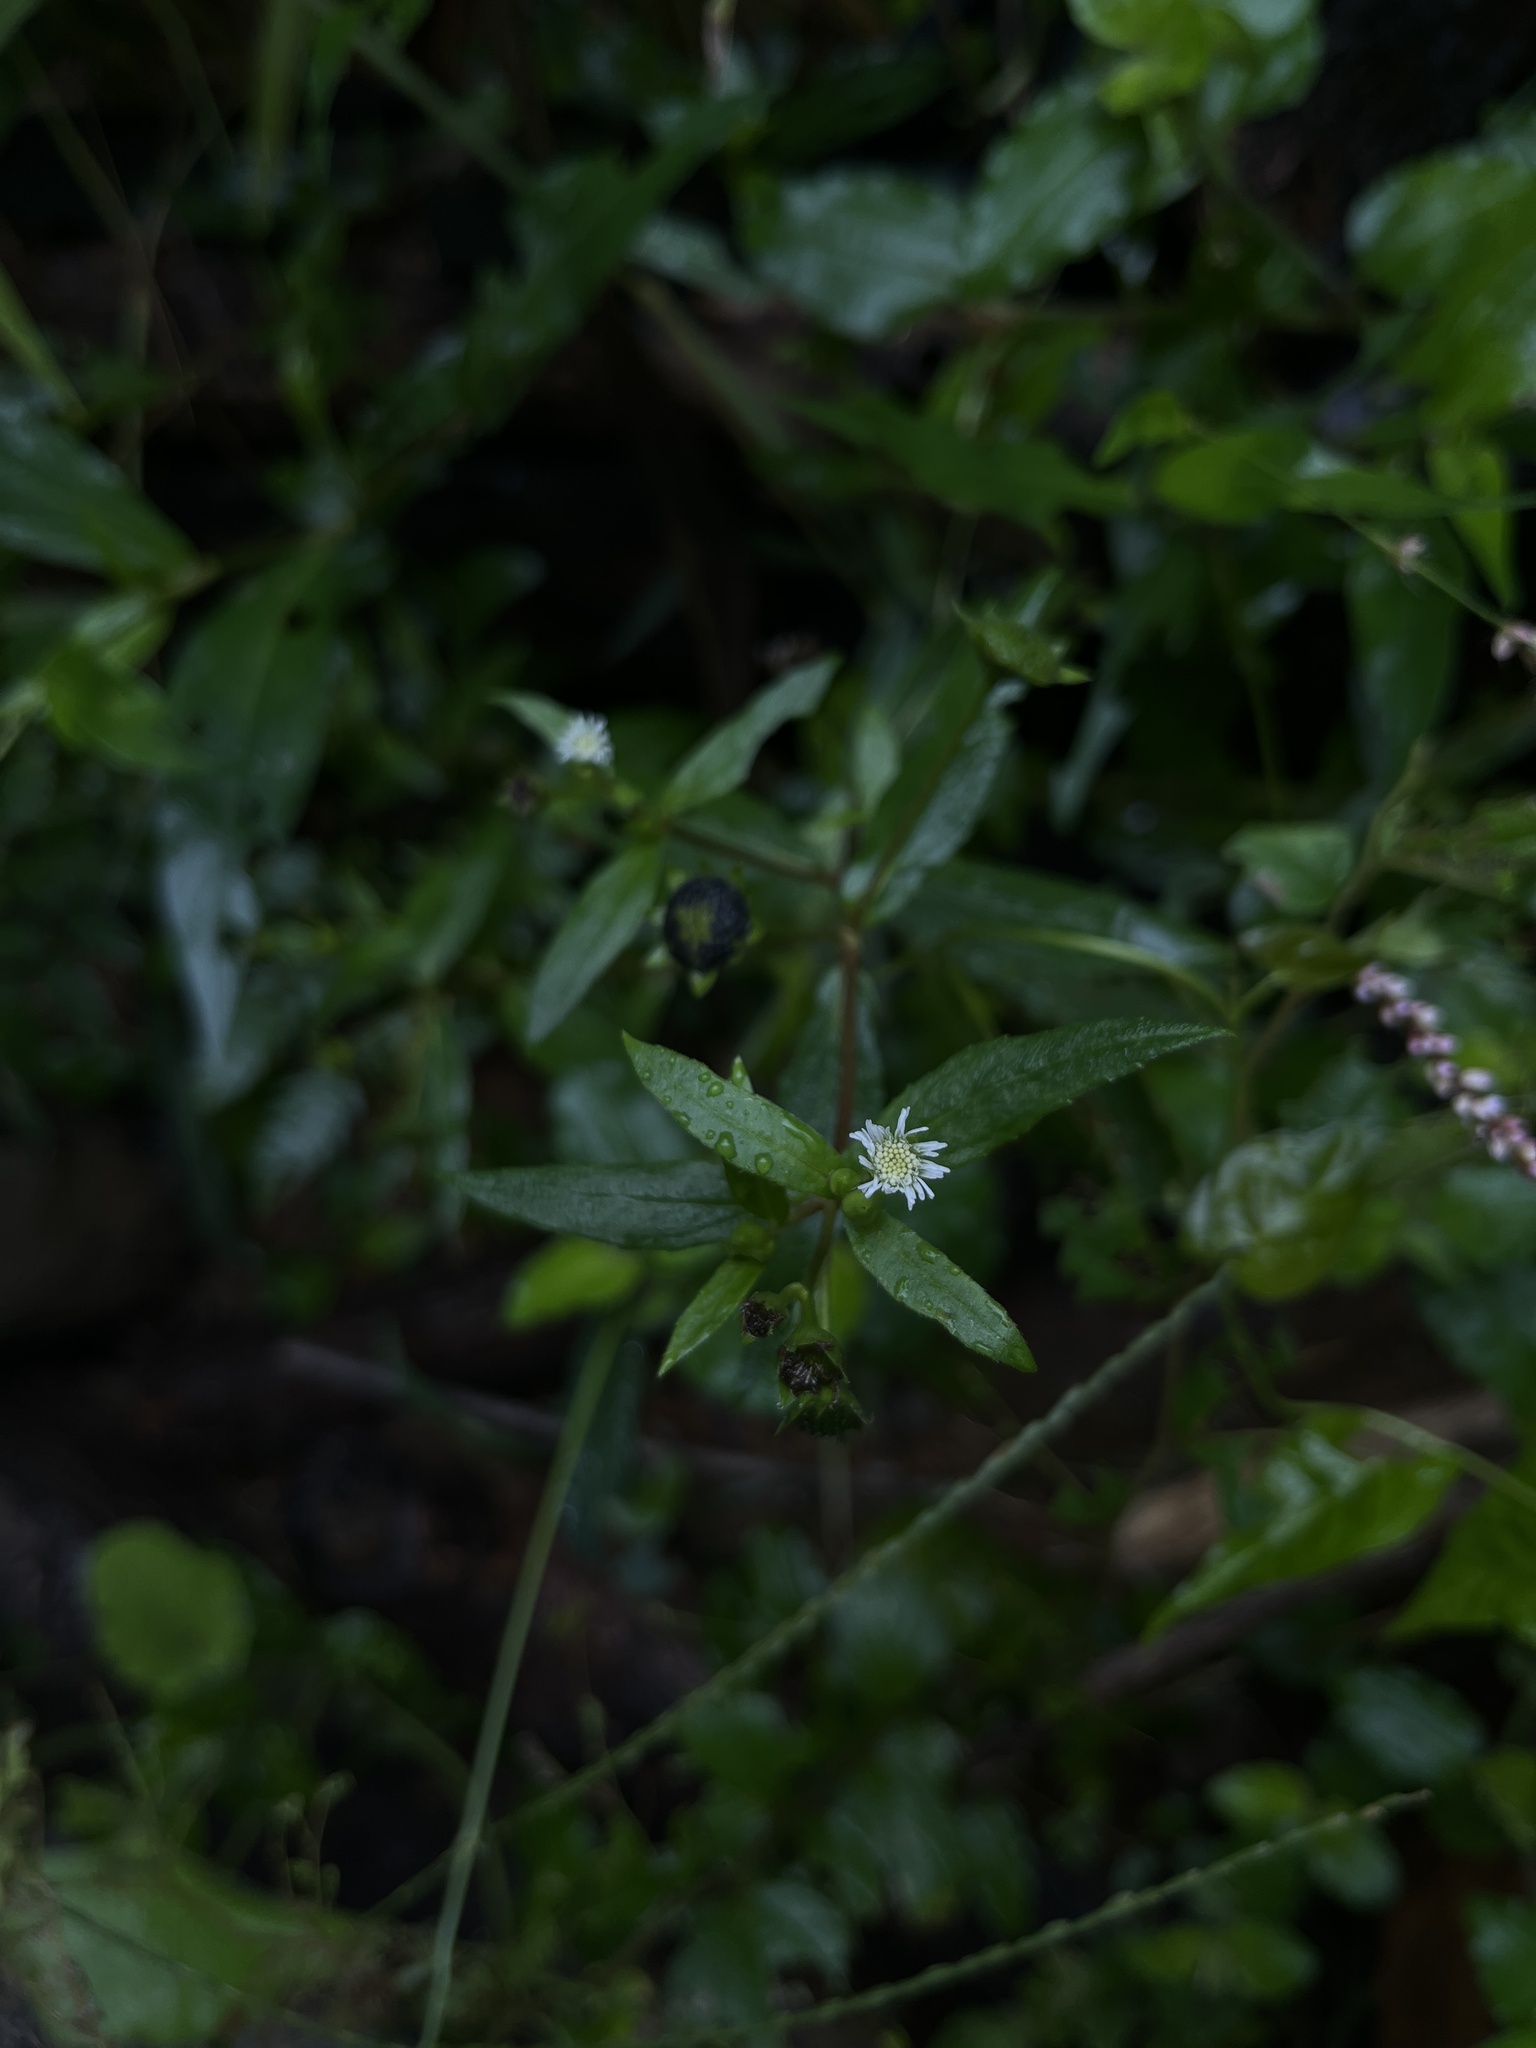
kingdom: Plantae
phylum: Tracheophyta
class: Magnoliopsida
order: Asterales
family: Asteraceae
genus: Eclipta
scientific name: Eclipta prostrata
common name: False daisy
